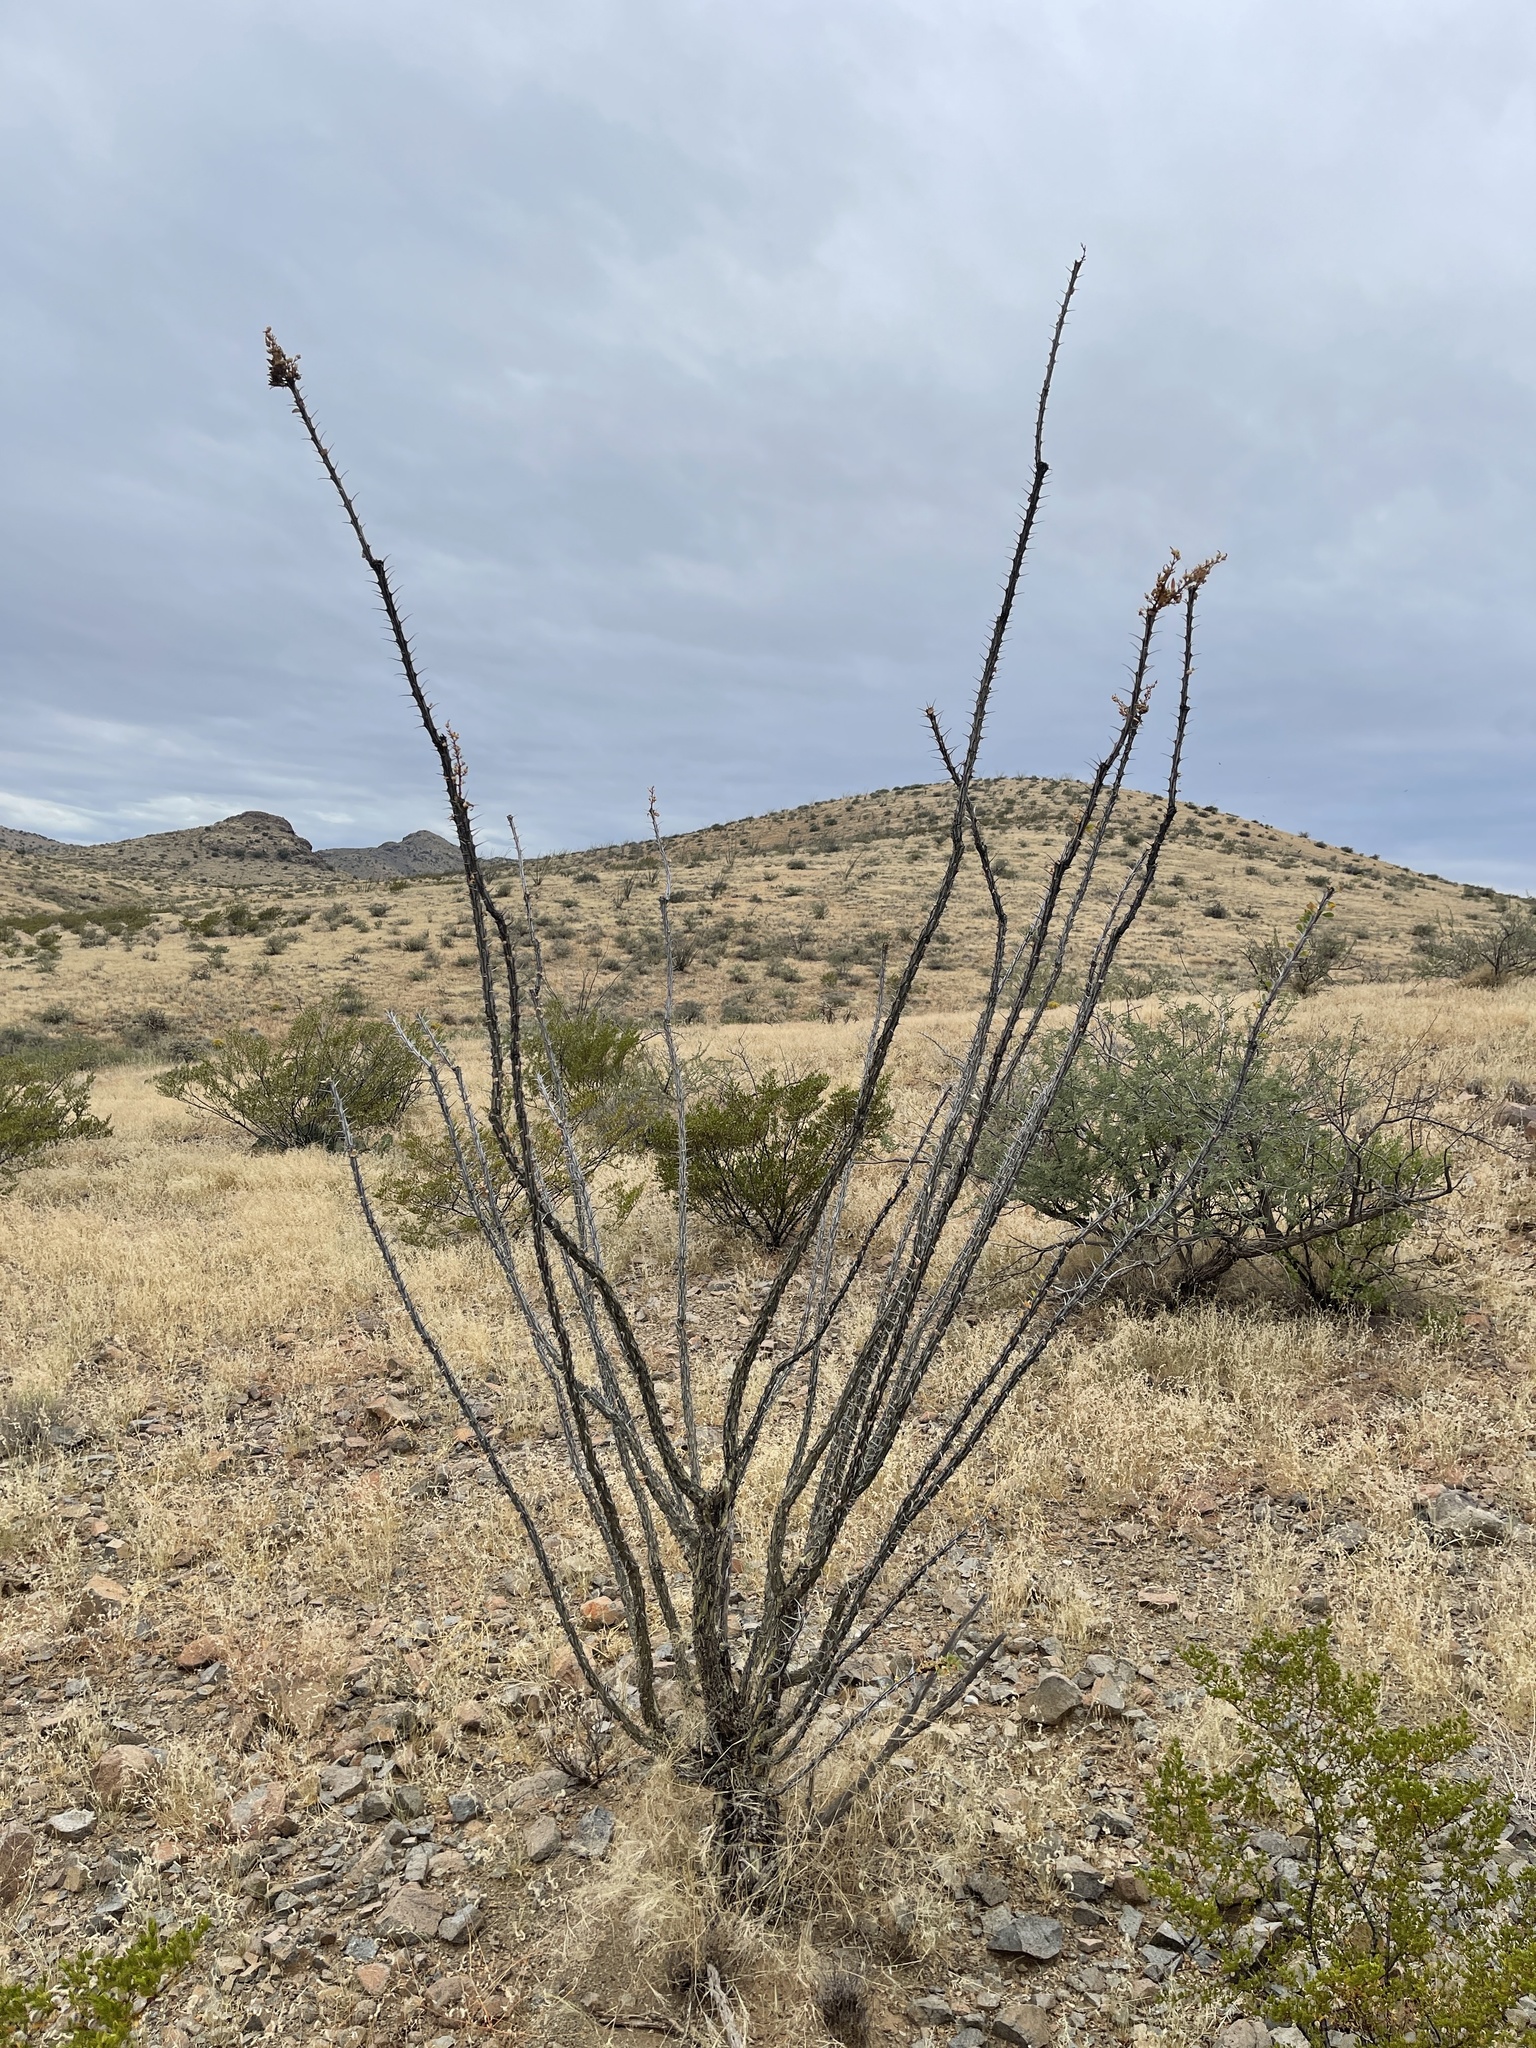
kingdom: Plantae
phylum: Tracheophyta
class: Magnoliopsida
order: Ericales
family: Fouquieriaceae
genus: Fouquieria
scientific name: Fouquieria splendens
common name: Vine-cactus
